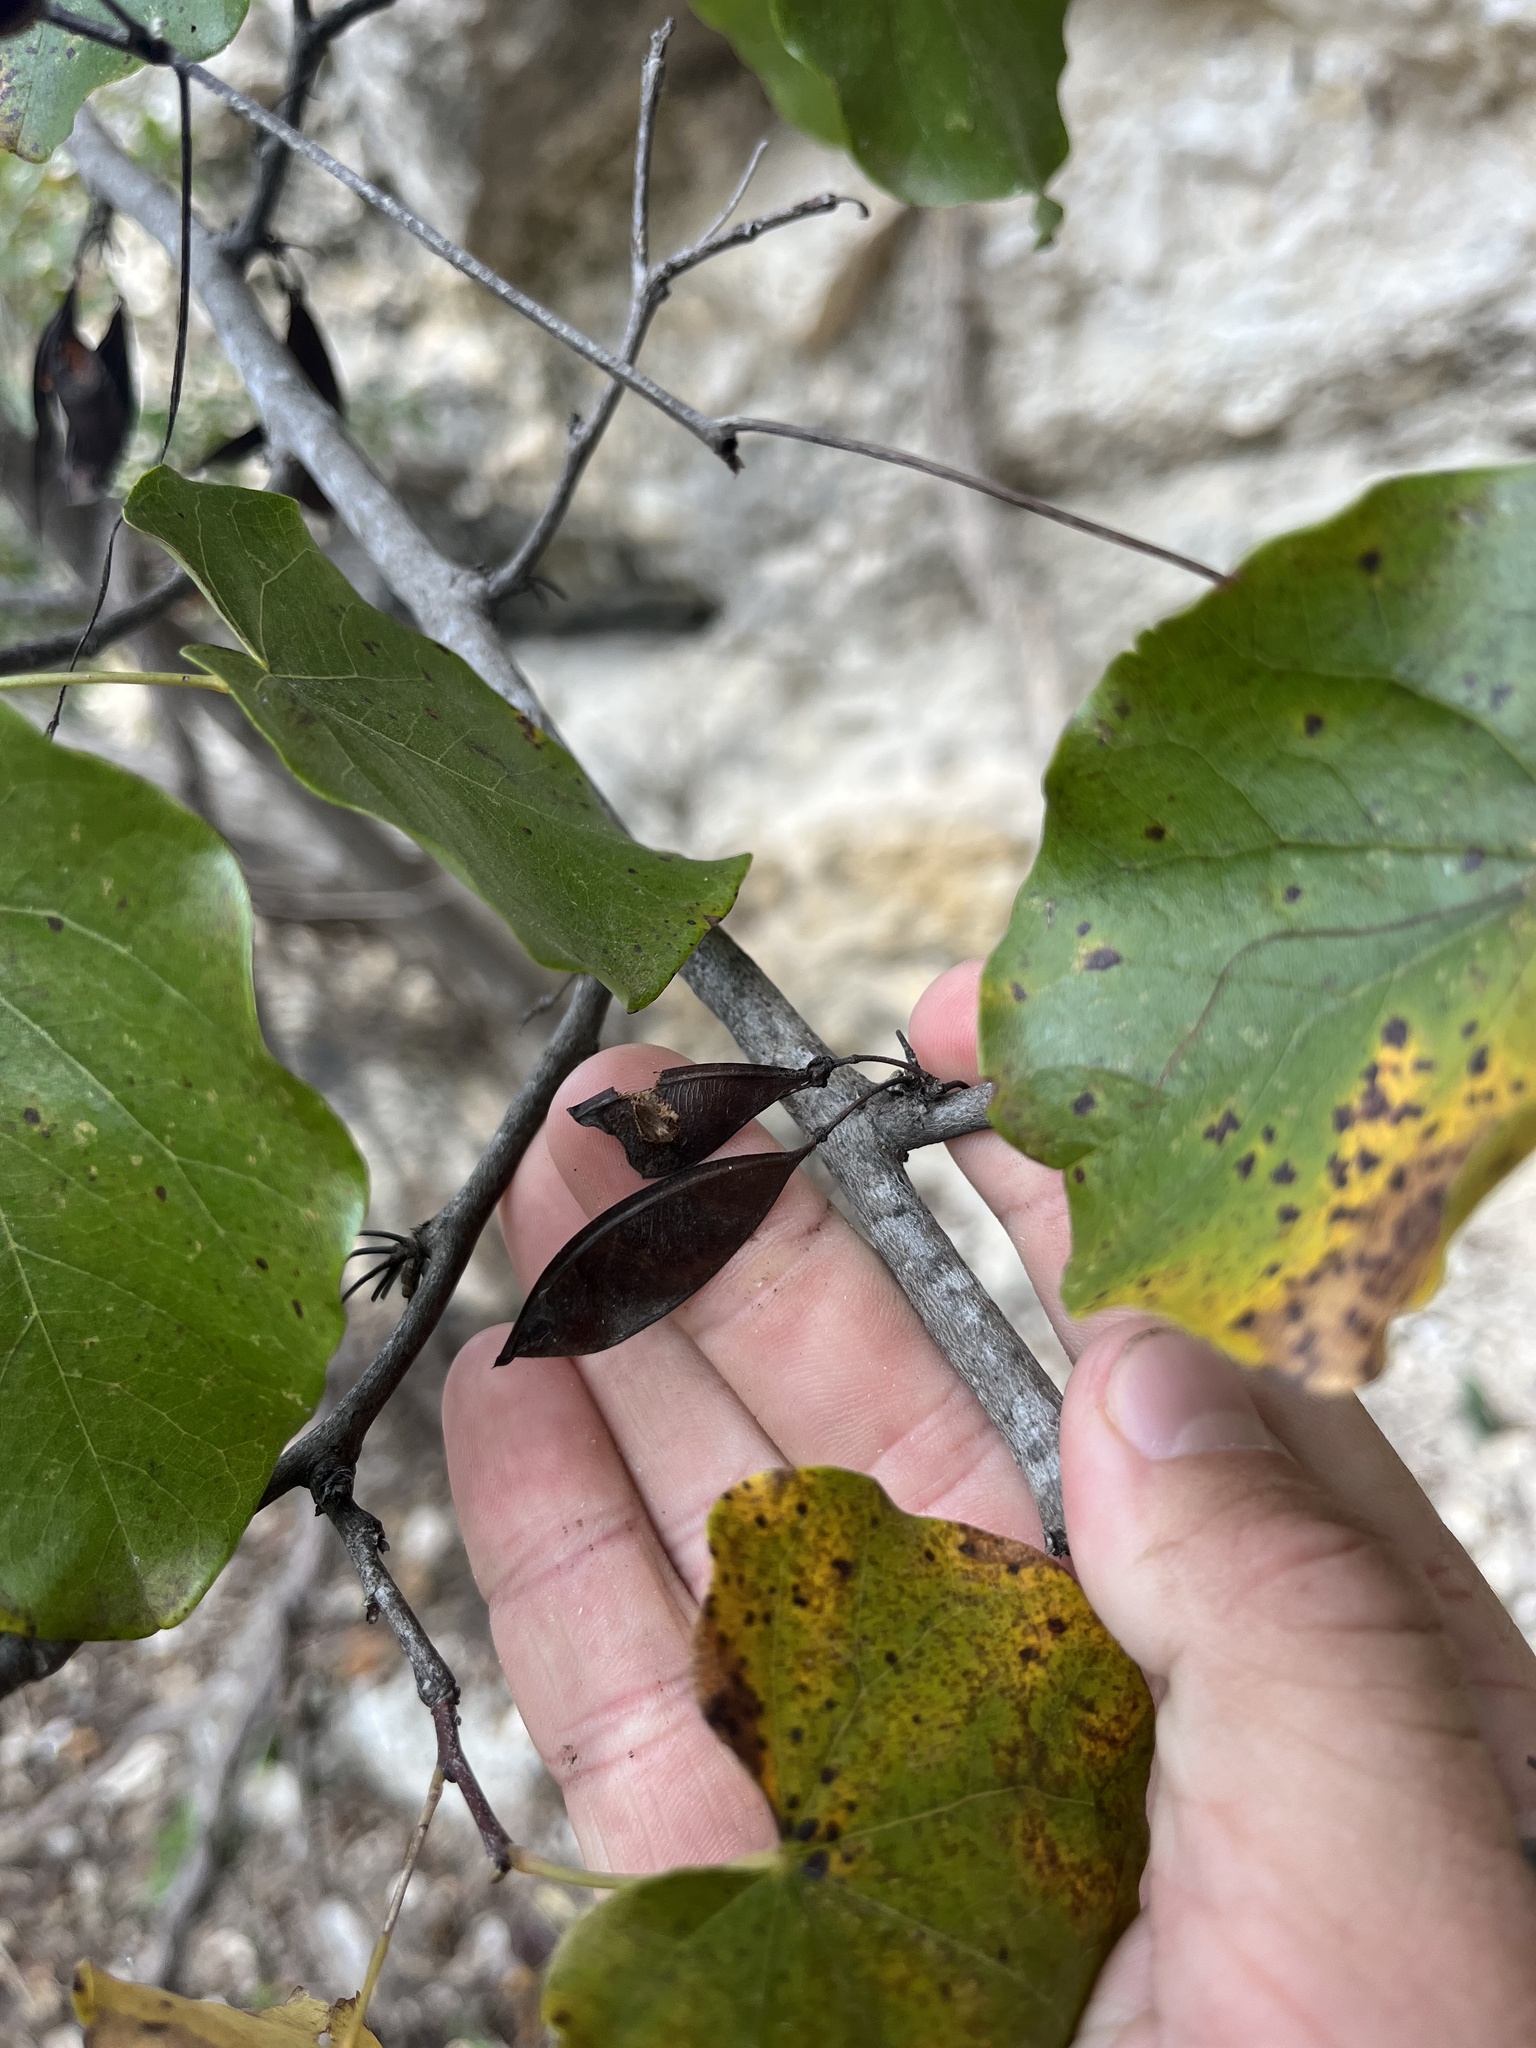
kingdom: Plantae
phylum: Tracheophyta
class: Magnoliopsida
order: Fabales
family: Fabaceae
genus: Cercis
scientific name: Cercis canadensis
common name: Eastern redbud
